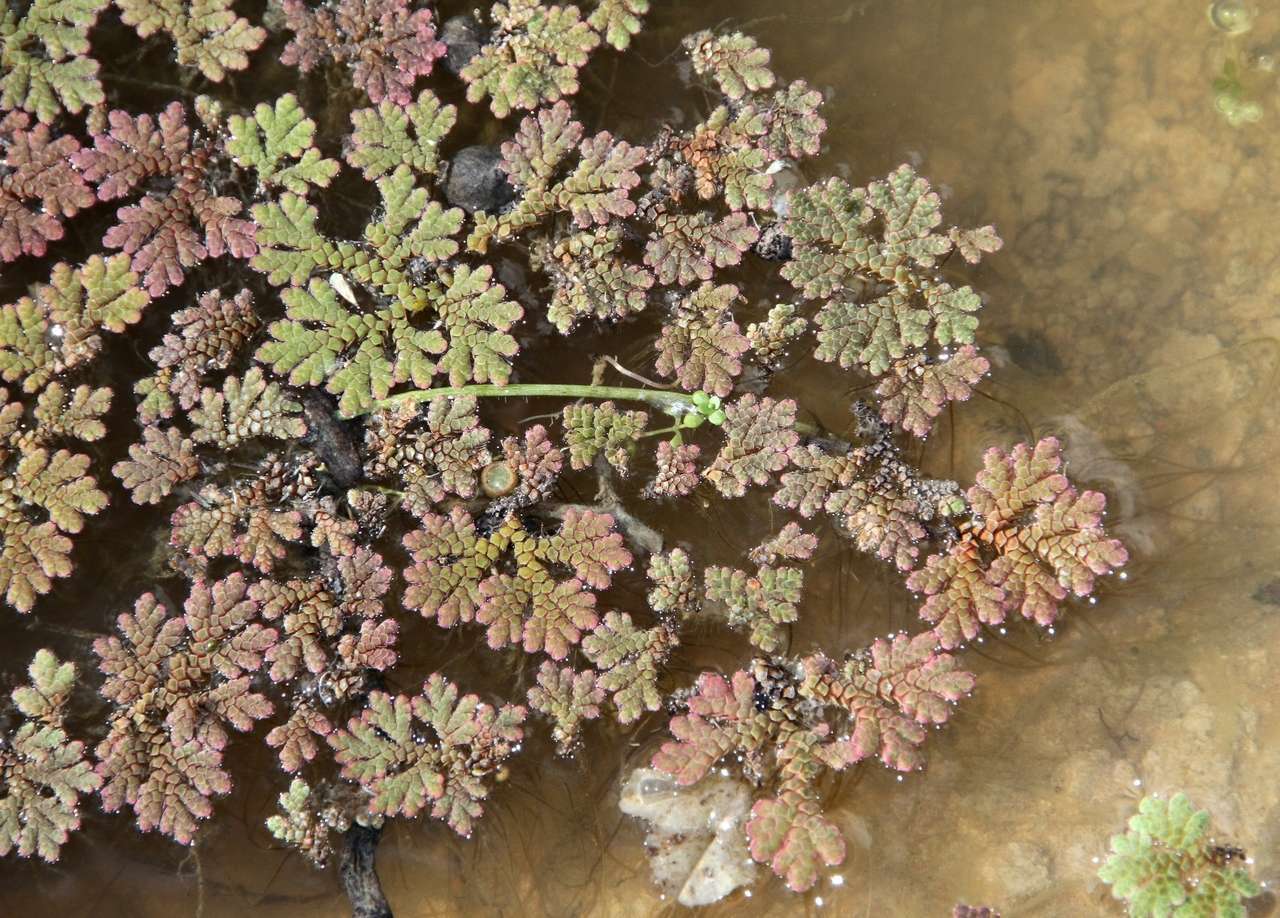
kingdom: Plantae
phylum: Tracheophyta
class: Polypodiopsida
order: Salviniales
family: Salviniaceae
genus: Azolla
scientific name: Azolla rubra
